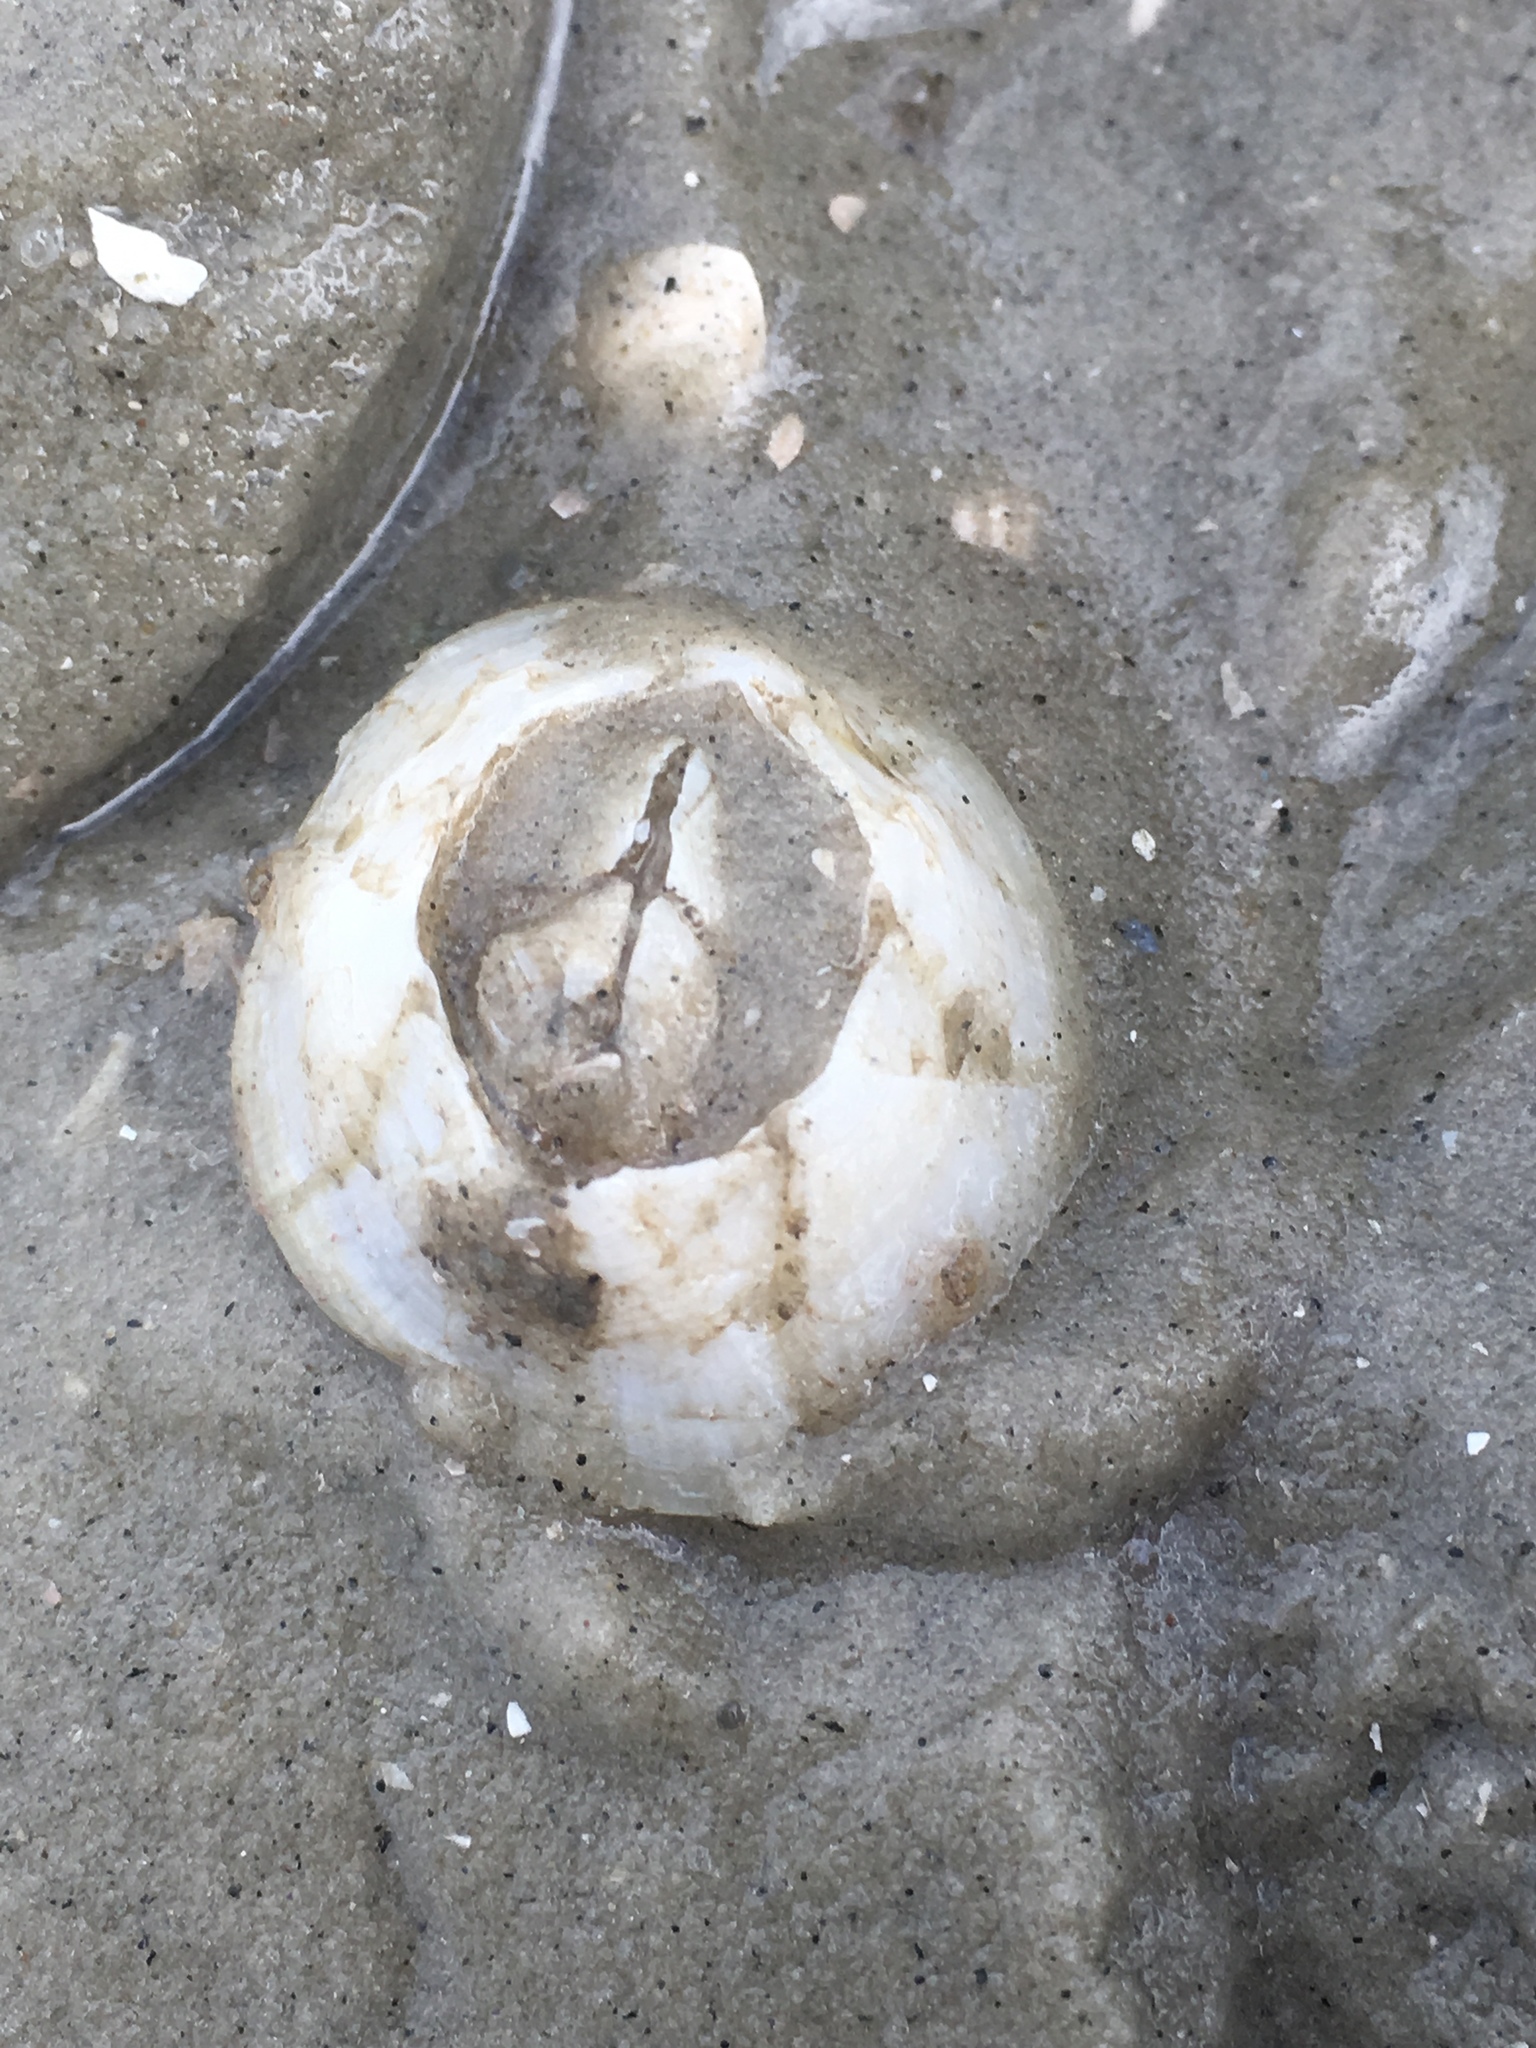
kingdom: Animalia
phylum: Arthropoda
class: Maxillopoda
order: Sessilia
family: Chelonibiidae
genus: Chelonibia
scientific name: Chelonibia testudinaria
